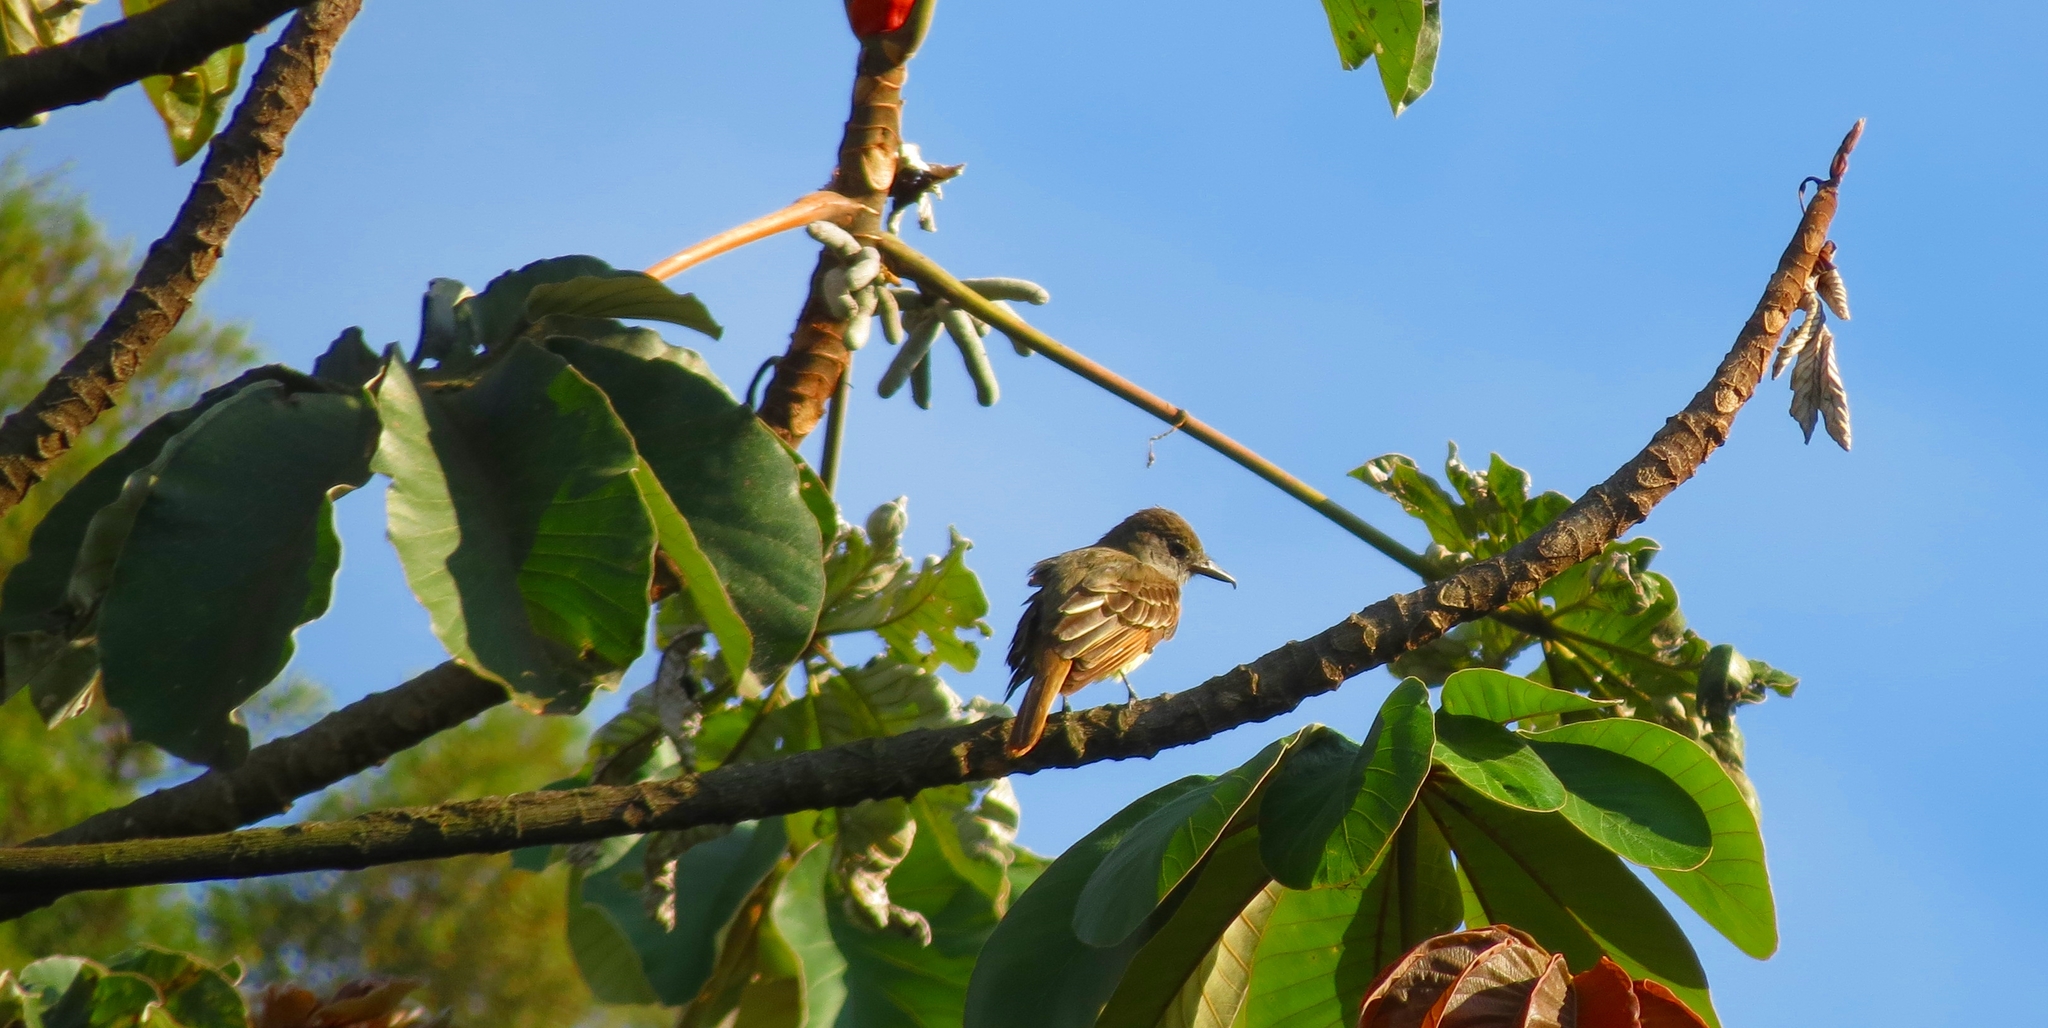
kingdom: Animalia
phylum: Chordata
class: Aves
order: Passeriformes
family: Tyrannidae
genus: Myiarchus
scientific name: Myiarchus crinitus
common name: Great crested flycatcher
